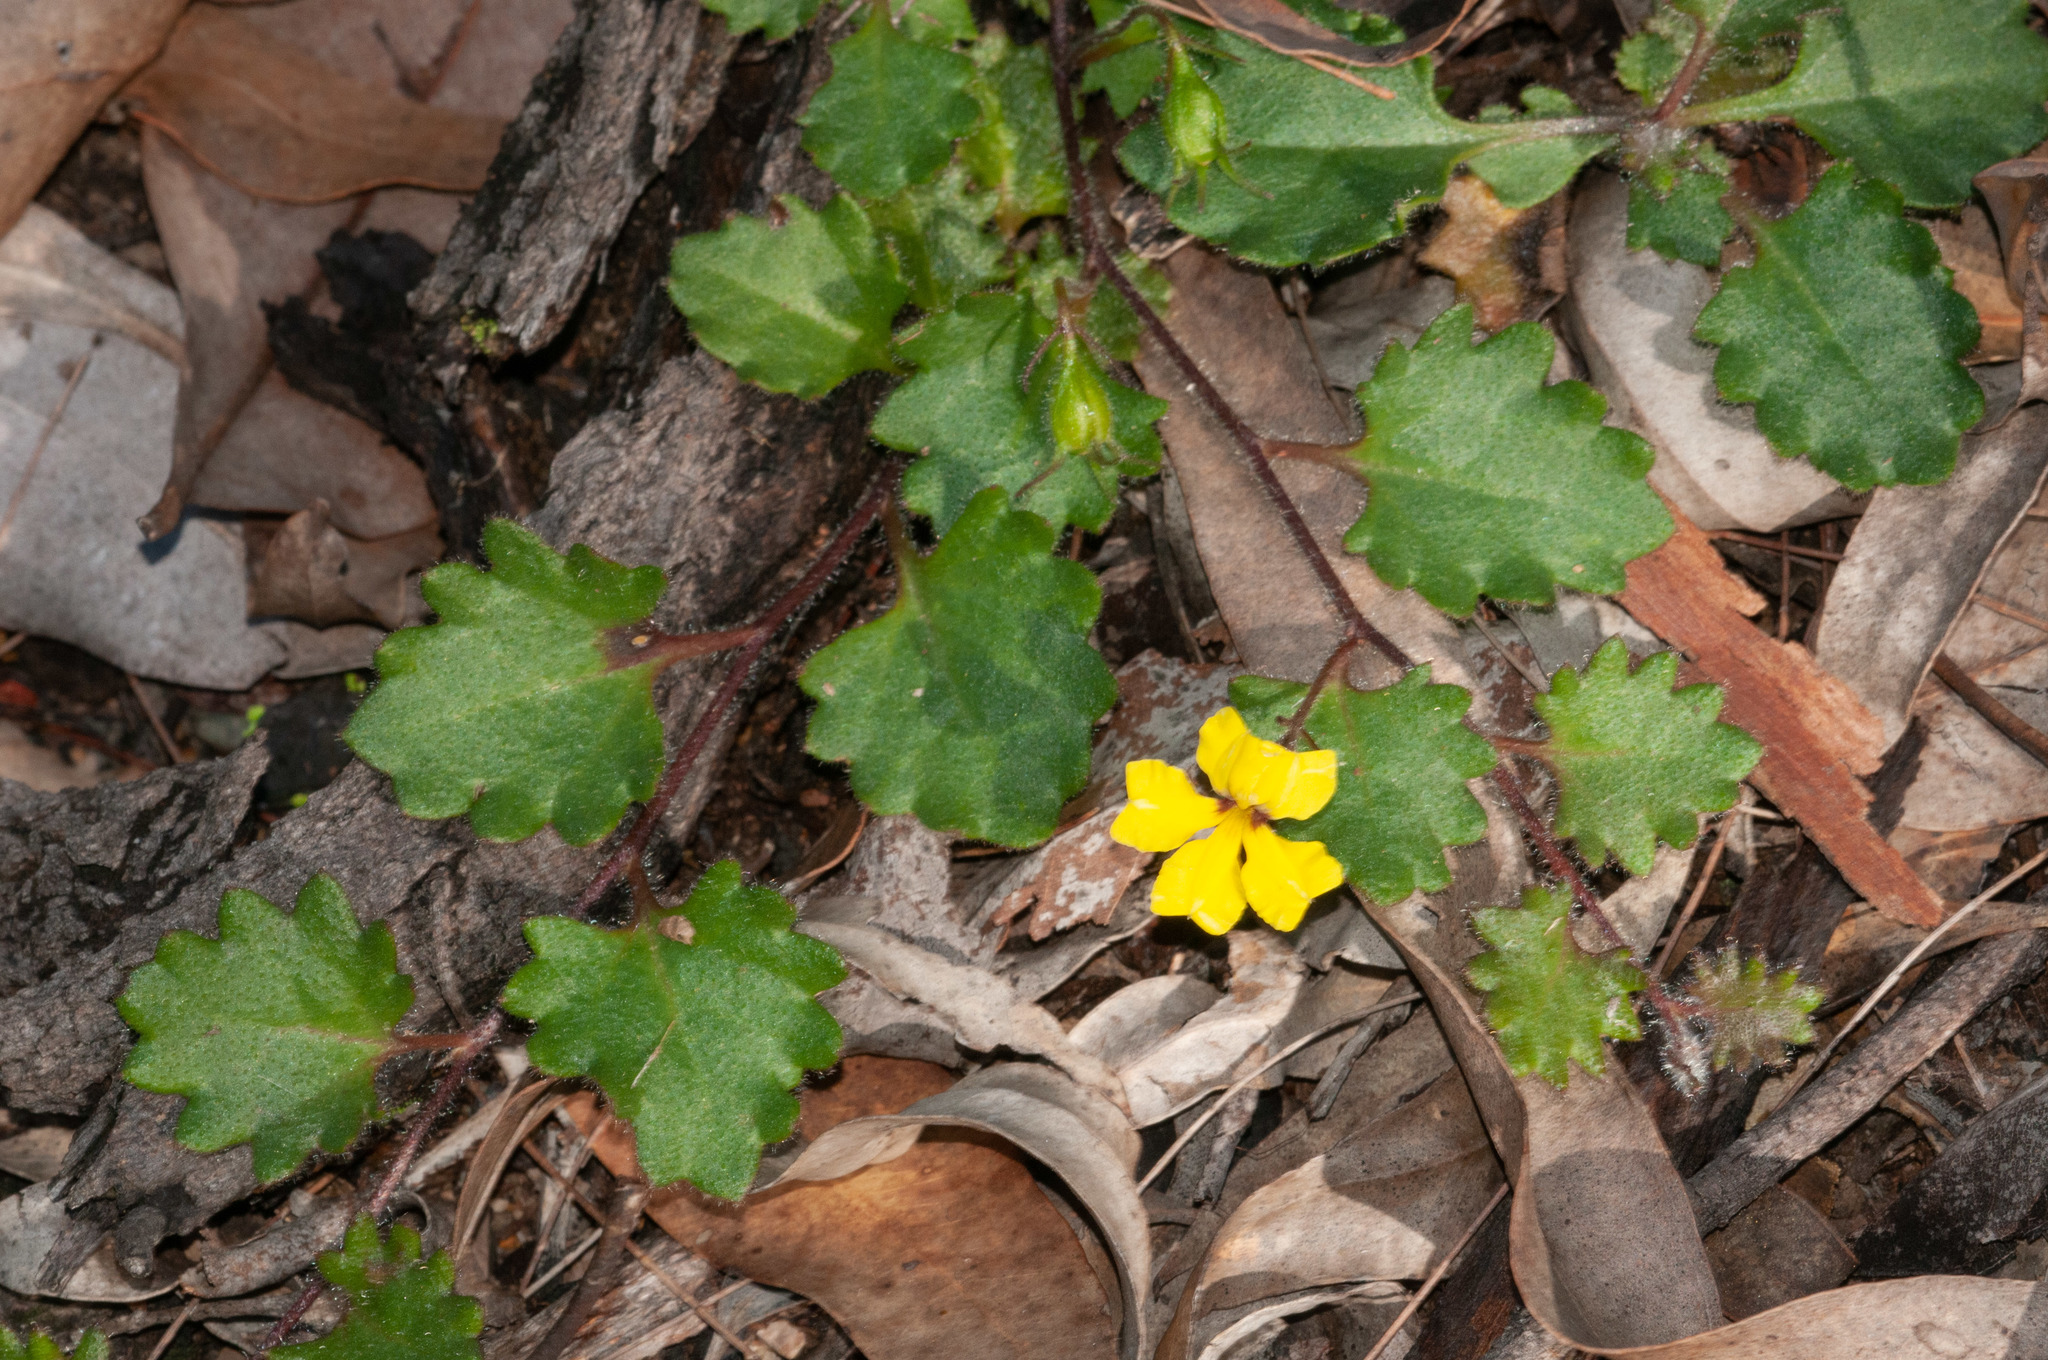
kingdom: Plantae
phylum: Tracheophyta
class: Magnoliopsida
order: Asterales
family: Goodeniaceae
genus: Goodenia
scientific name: Goodenia rotundifolia
